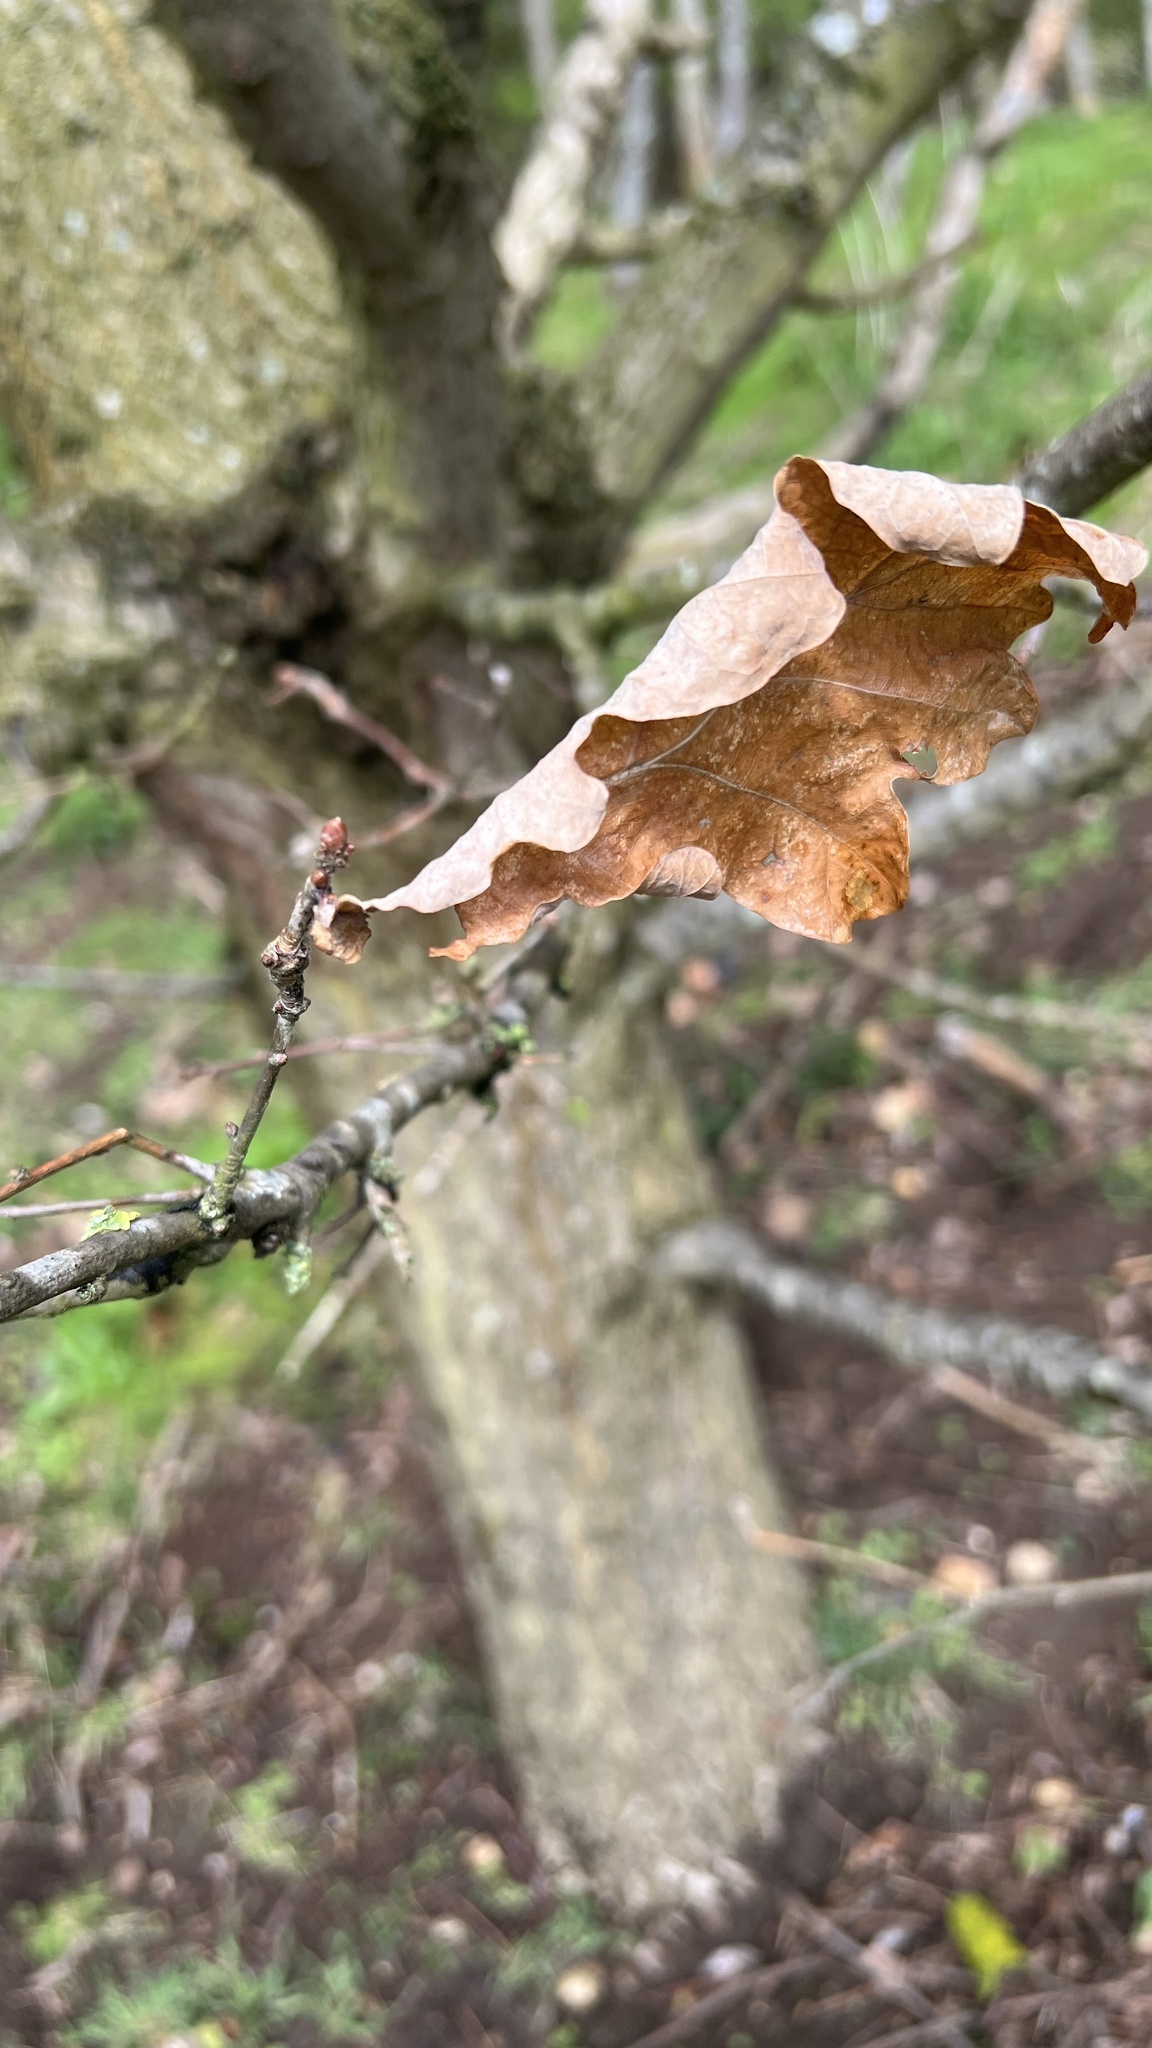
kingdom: Plantae
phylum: Tracheophyta
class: Magnoliopsida
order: Fagales
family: Fagaceae
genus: Quercus
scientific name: Quercus robur
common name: Pedunculate oak
